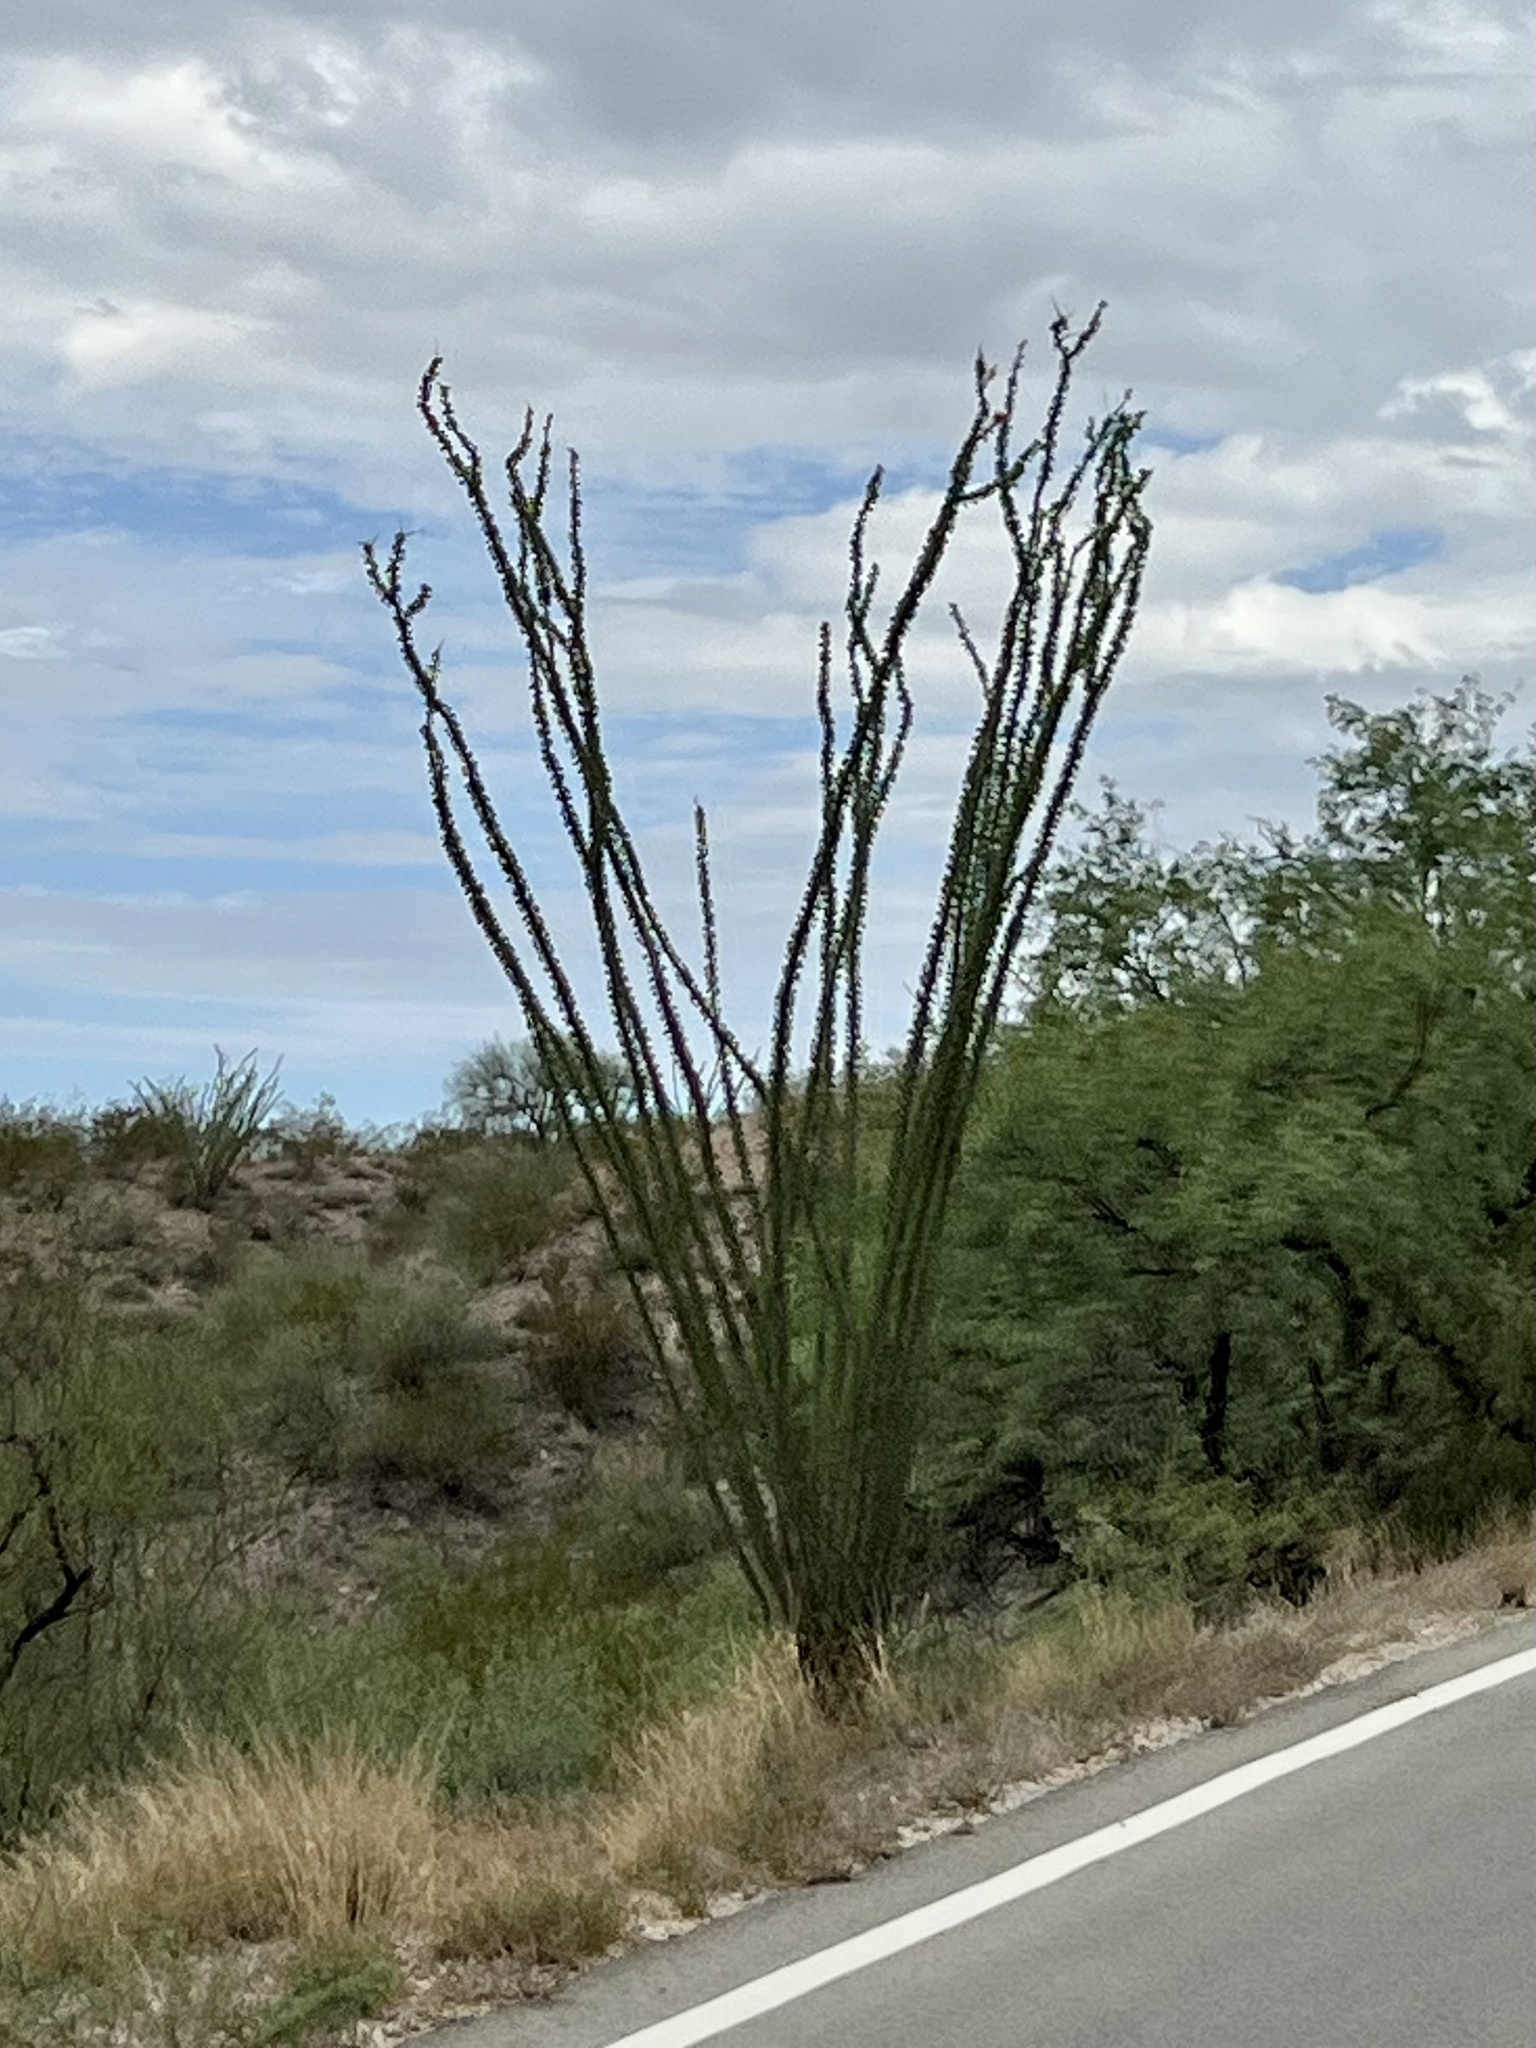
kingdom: Plantae
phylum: Tracheophyta
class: Magnoliopsida
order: Ericales
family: Fouquieriaceae
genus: Fouquieria
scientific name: Fouquieria splendens
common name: Vine-cactus
